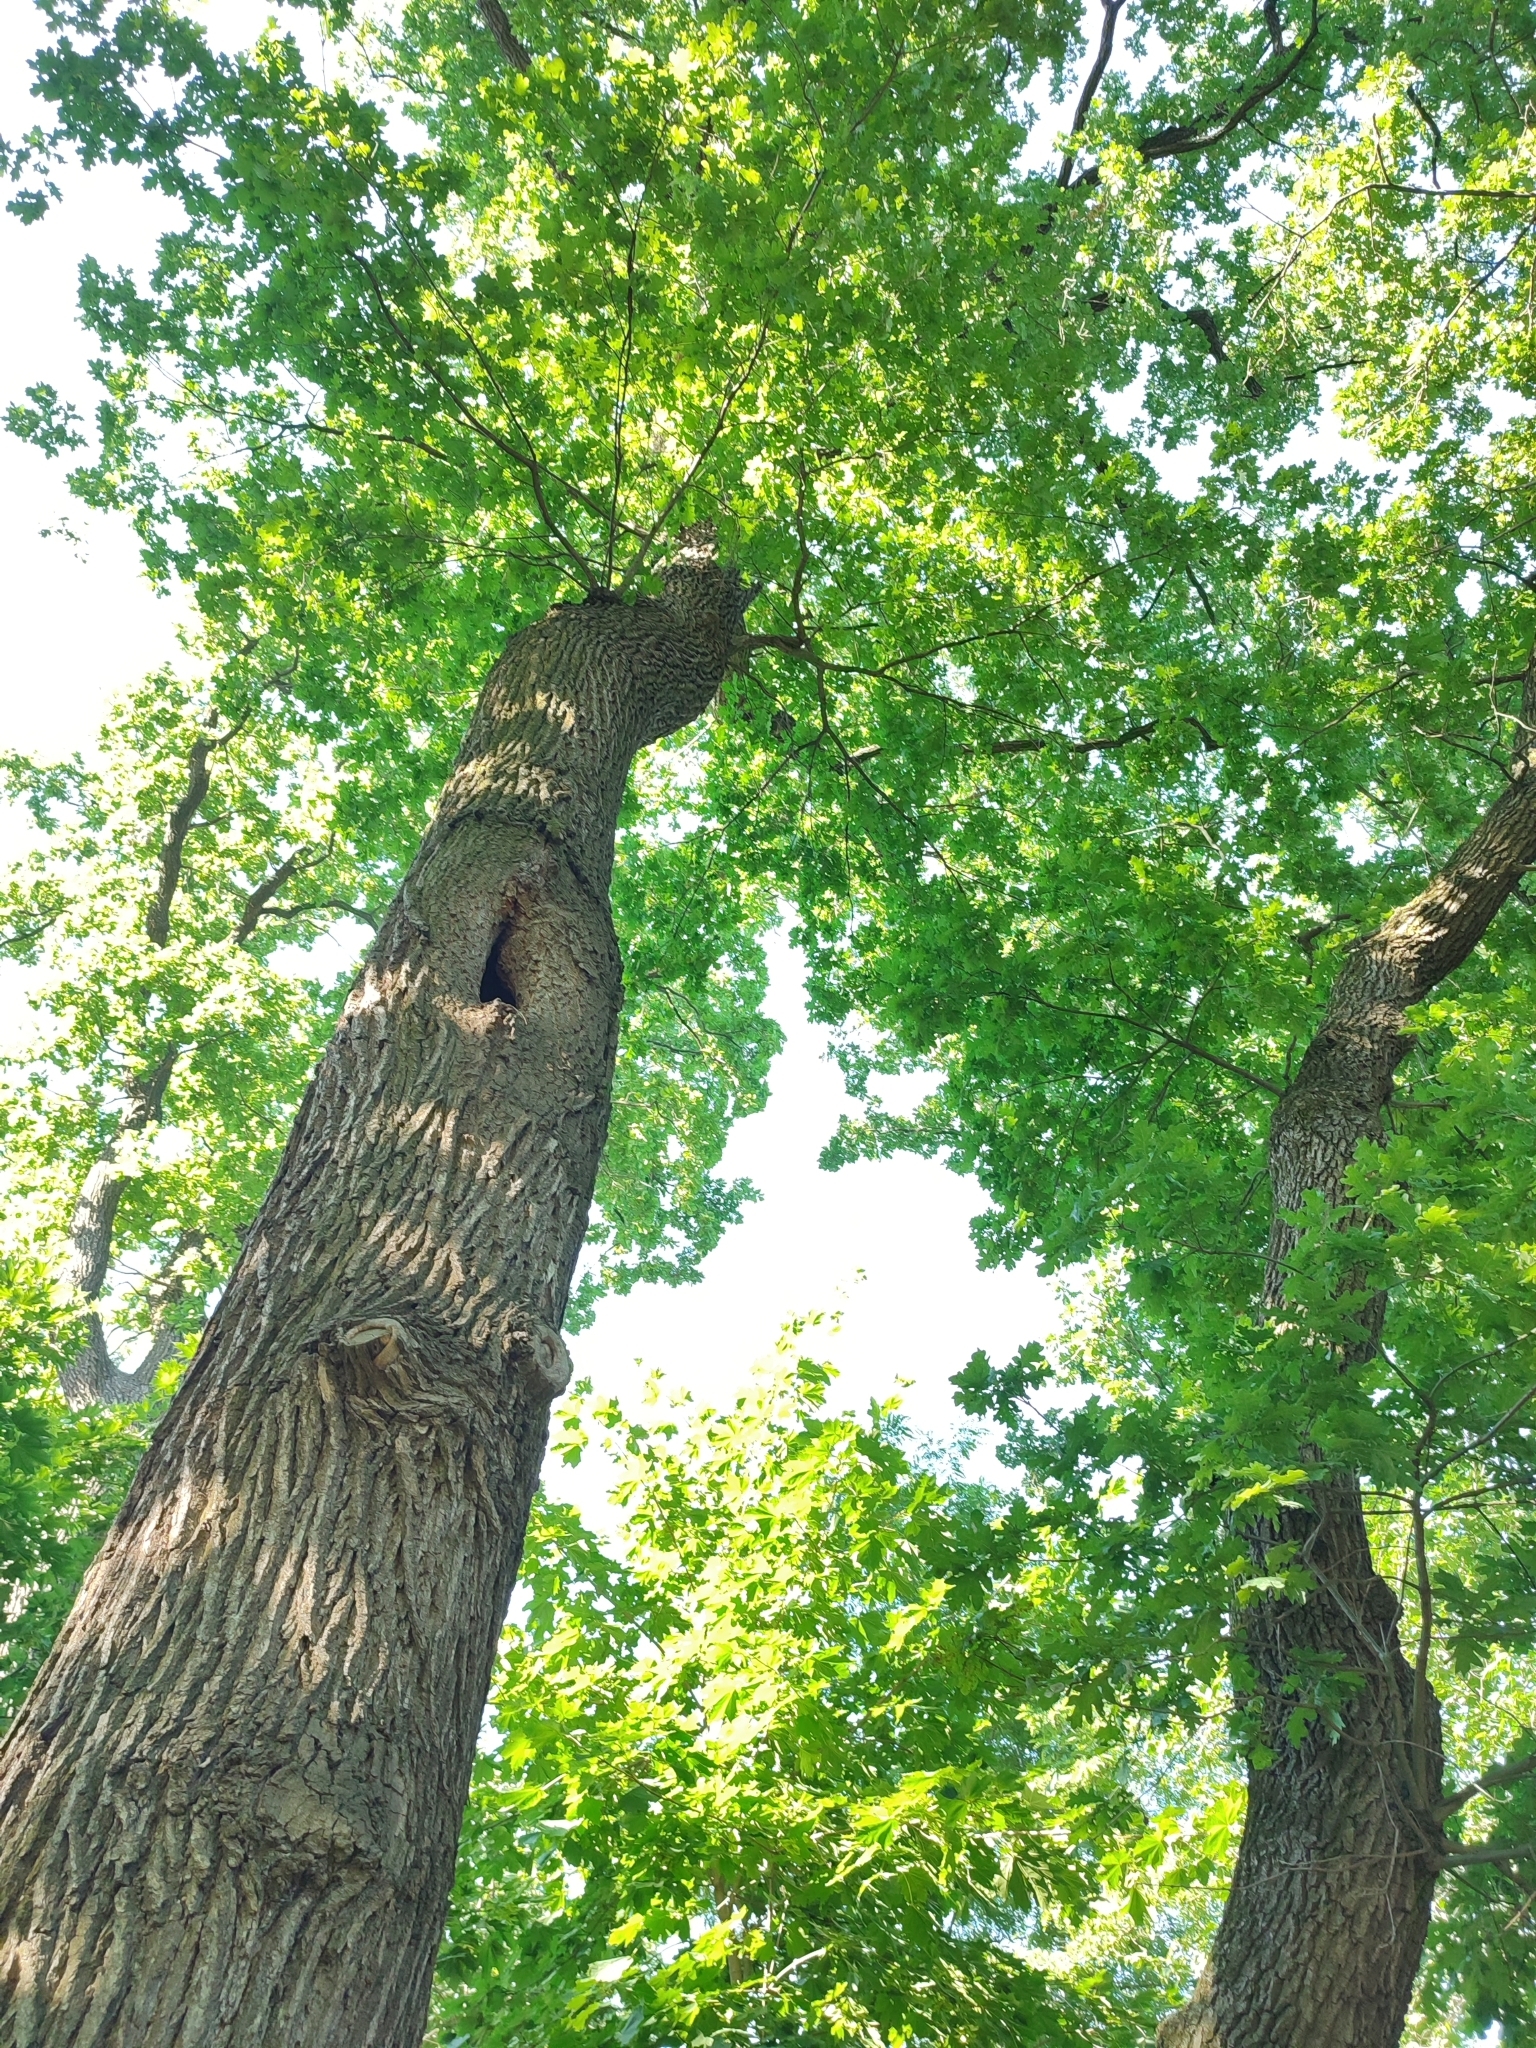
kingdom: Plantae
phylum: Tracheophyta
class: Magnoliopsida
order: Fagales
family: Fagaceae
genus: Quercus
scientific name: Quercus robur
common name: Pedunculate oak
